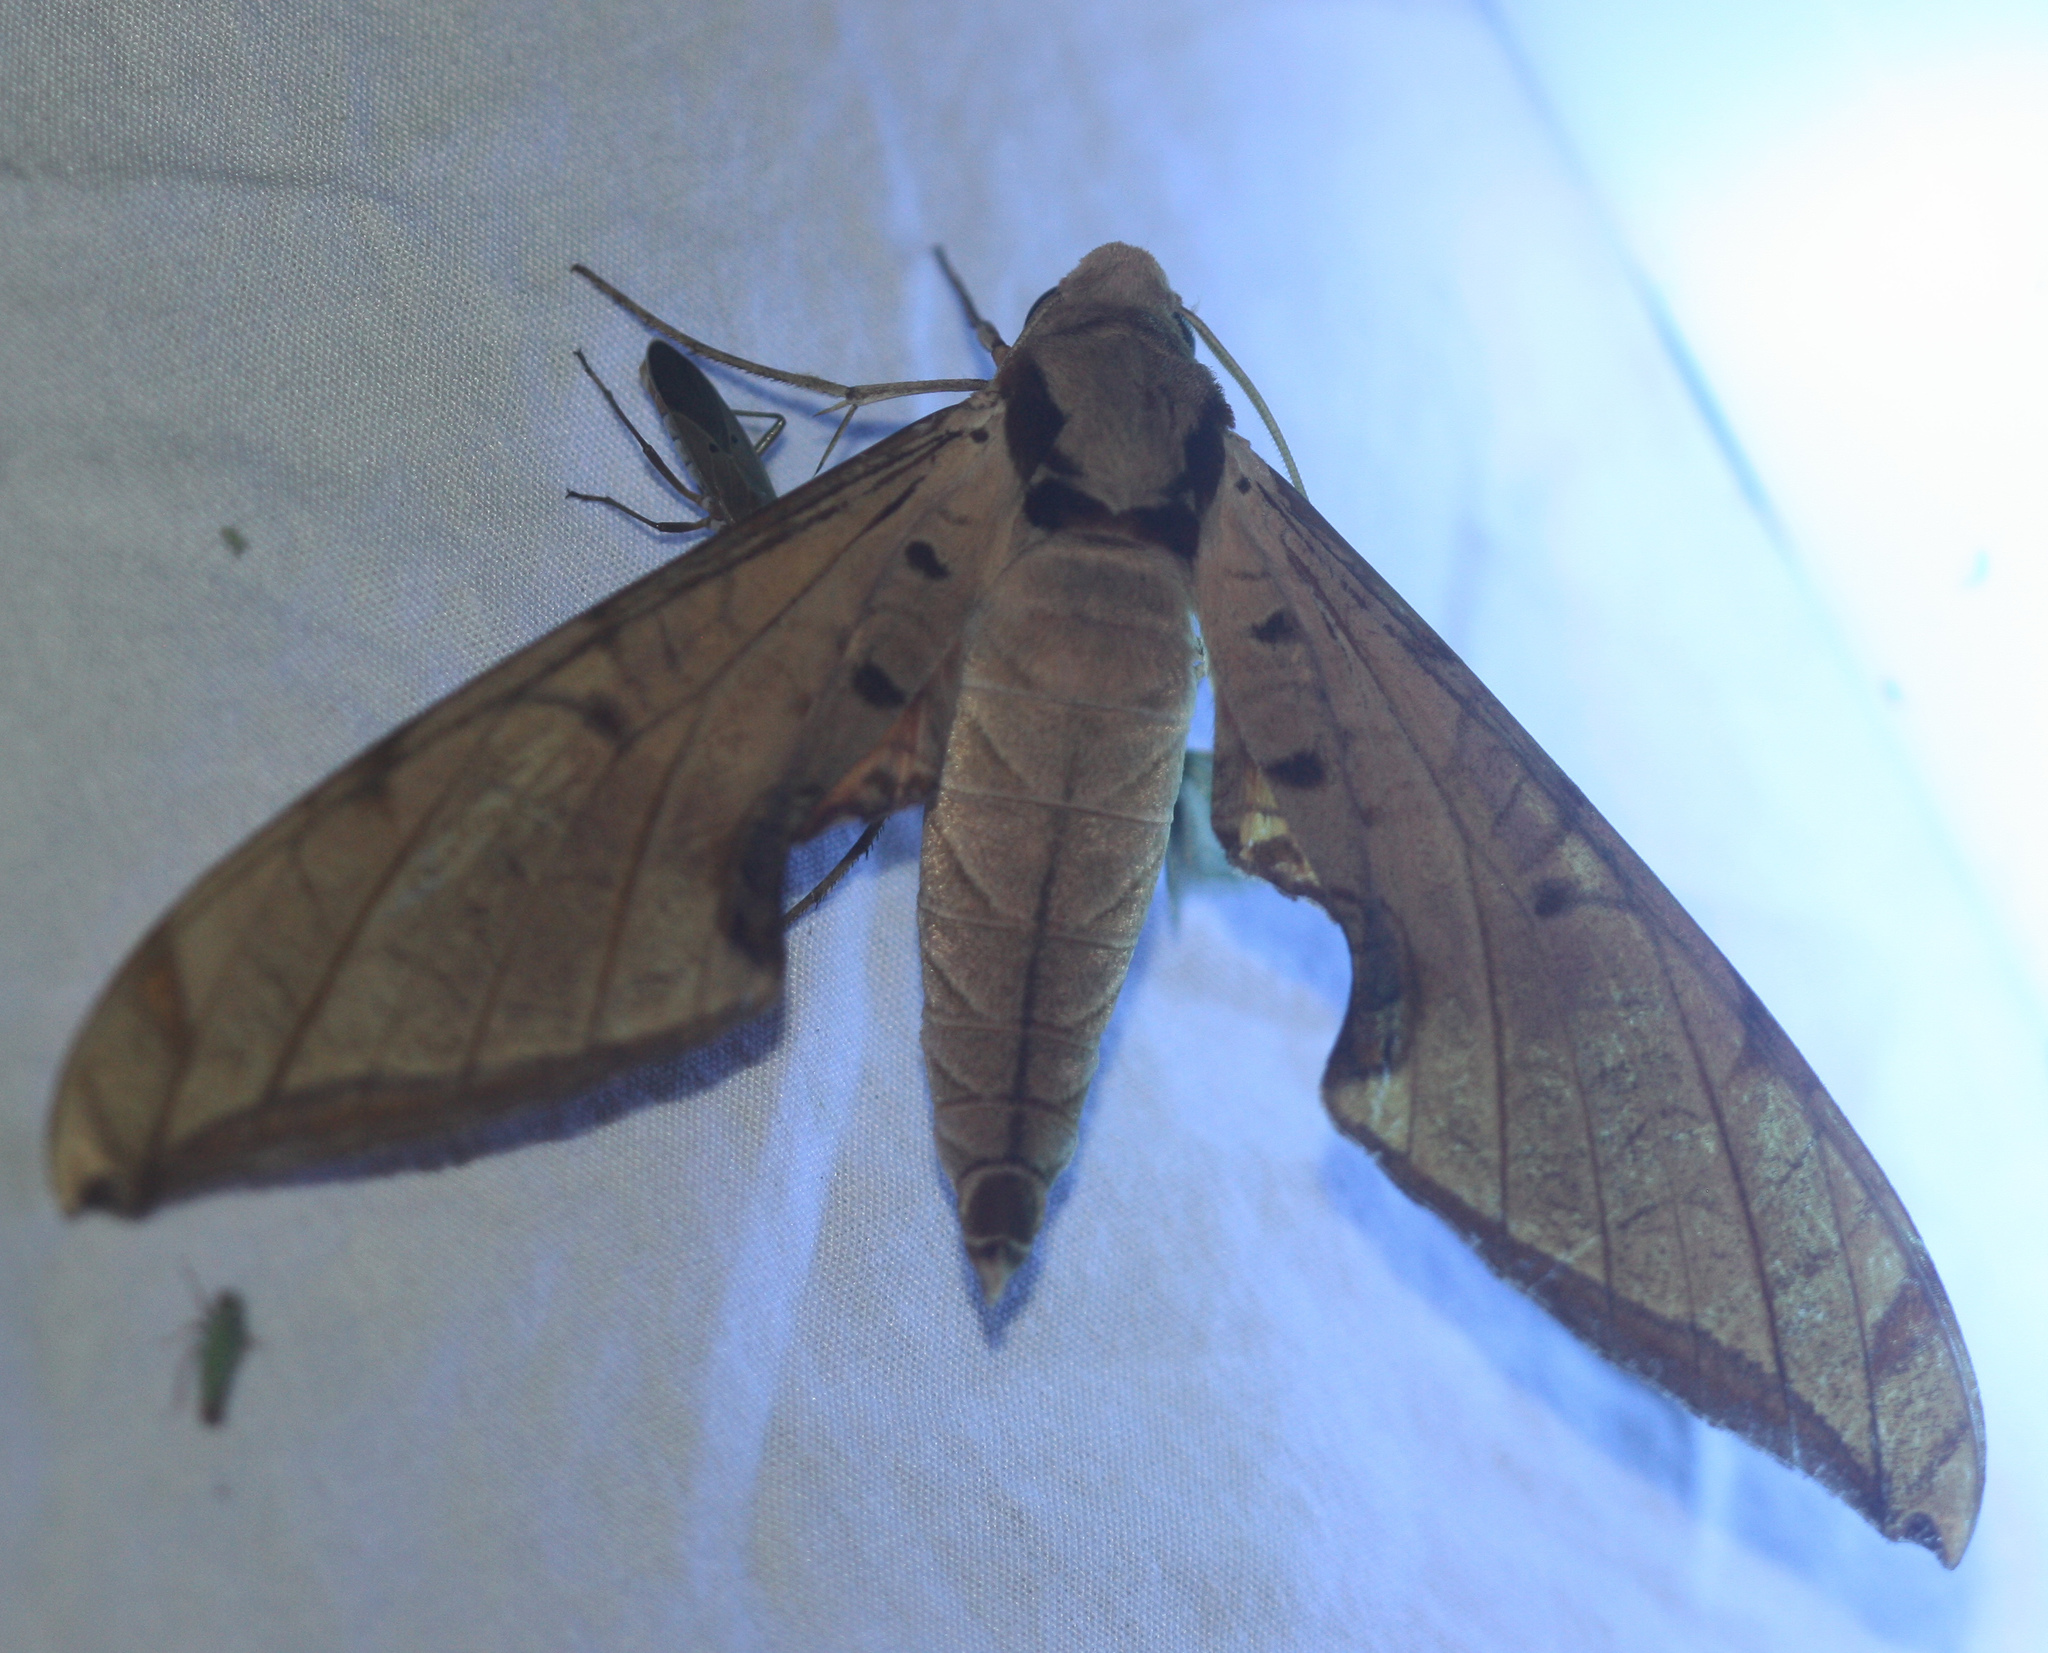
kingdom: Animalia
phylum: Arthropoda
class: Insecta
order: Lepidoptera
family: Sphingidae
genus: Protambulyx
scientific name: Protambulyx strigilis
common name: Streaked sphinx
